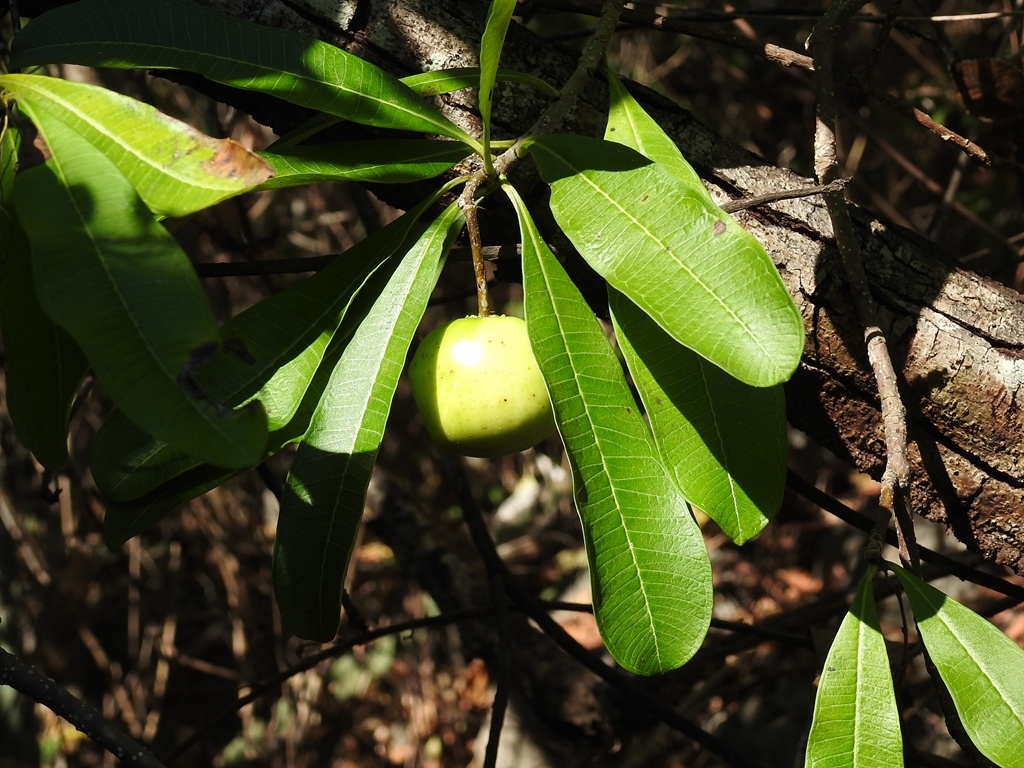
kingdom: Plantae
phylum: Tracheophyta
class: Magnoliopsida
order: Gentianales
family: Apocynaceae
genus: Cascabela
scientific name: Cascabela ovata
